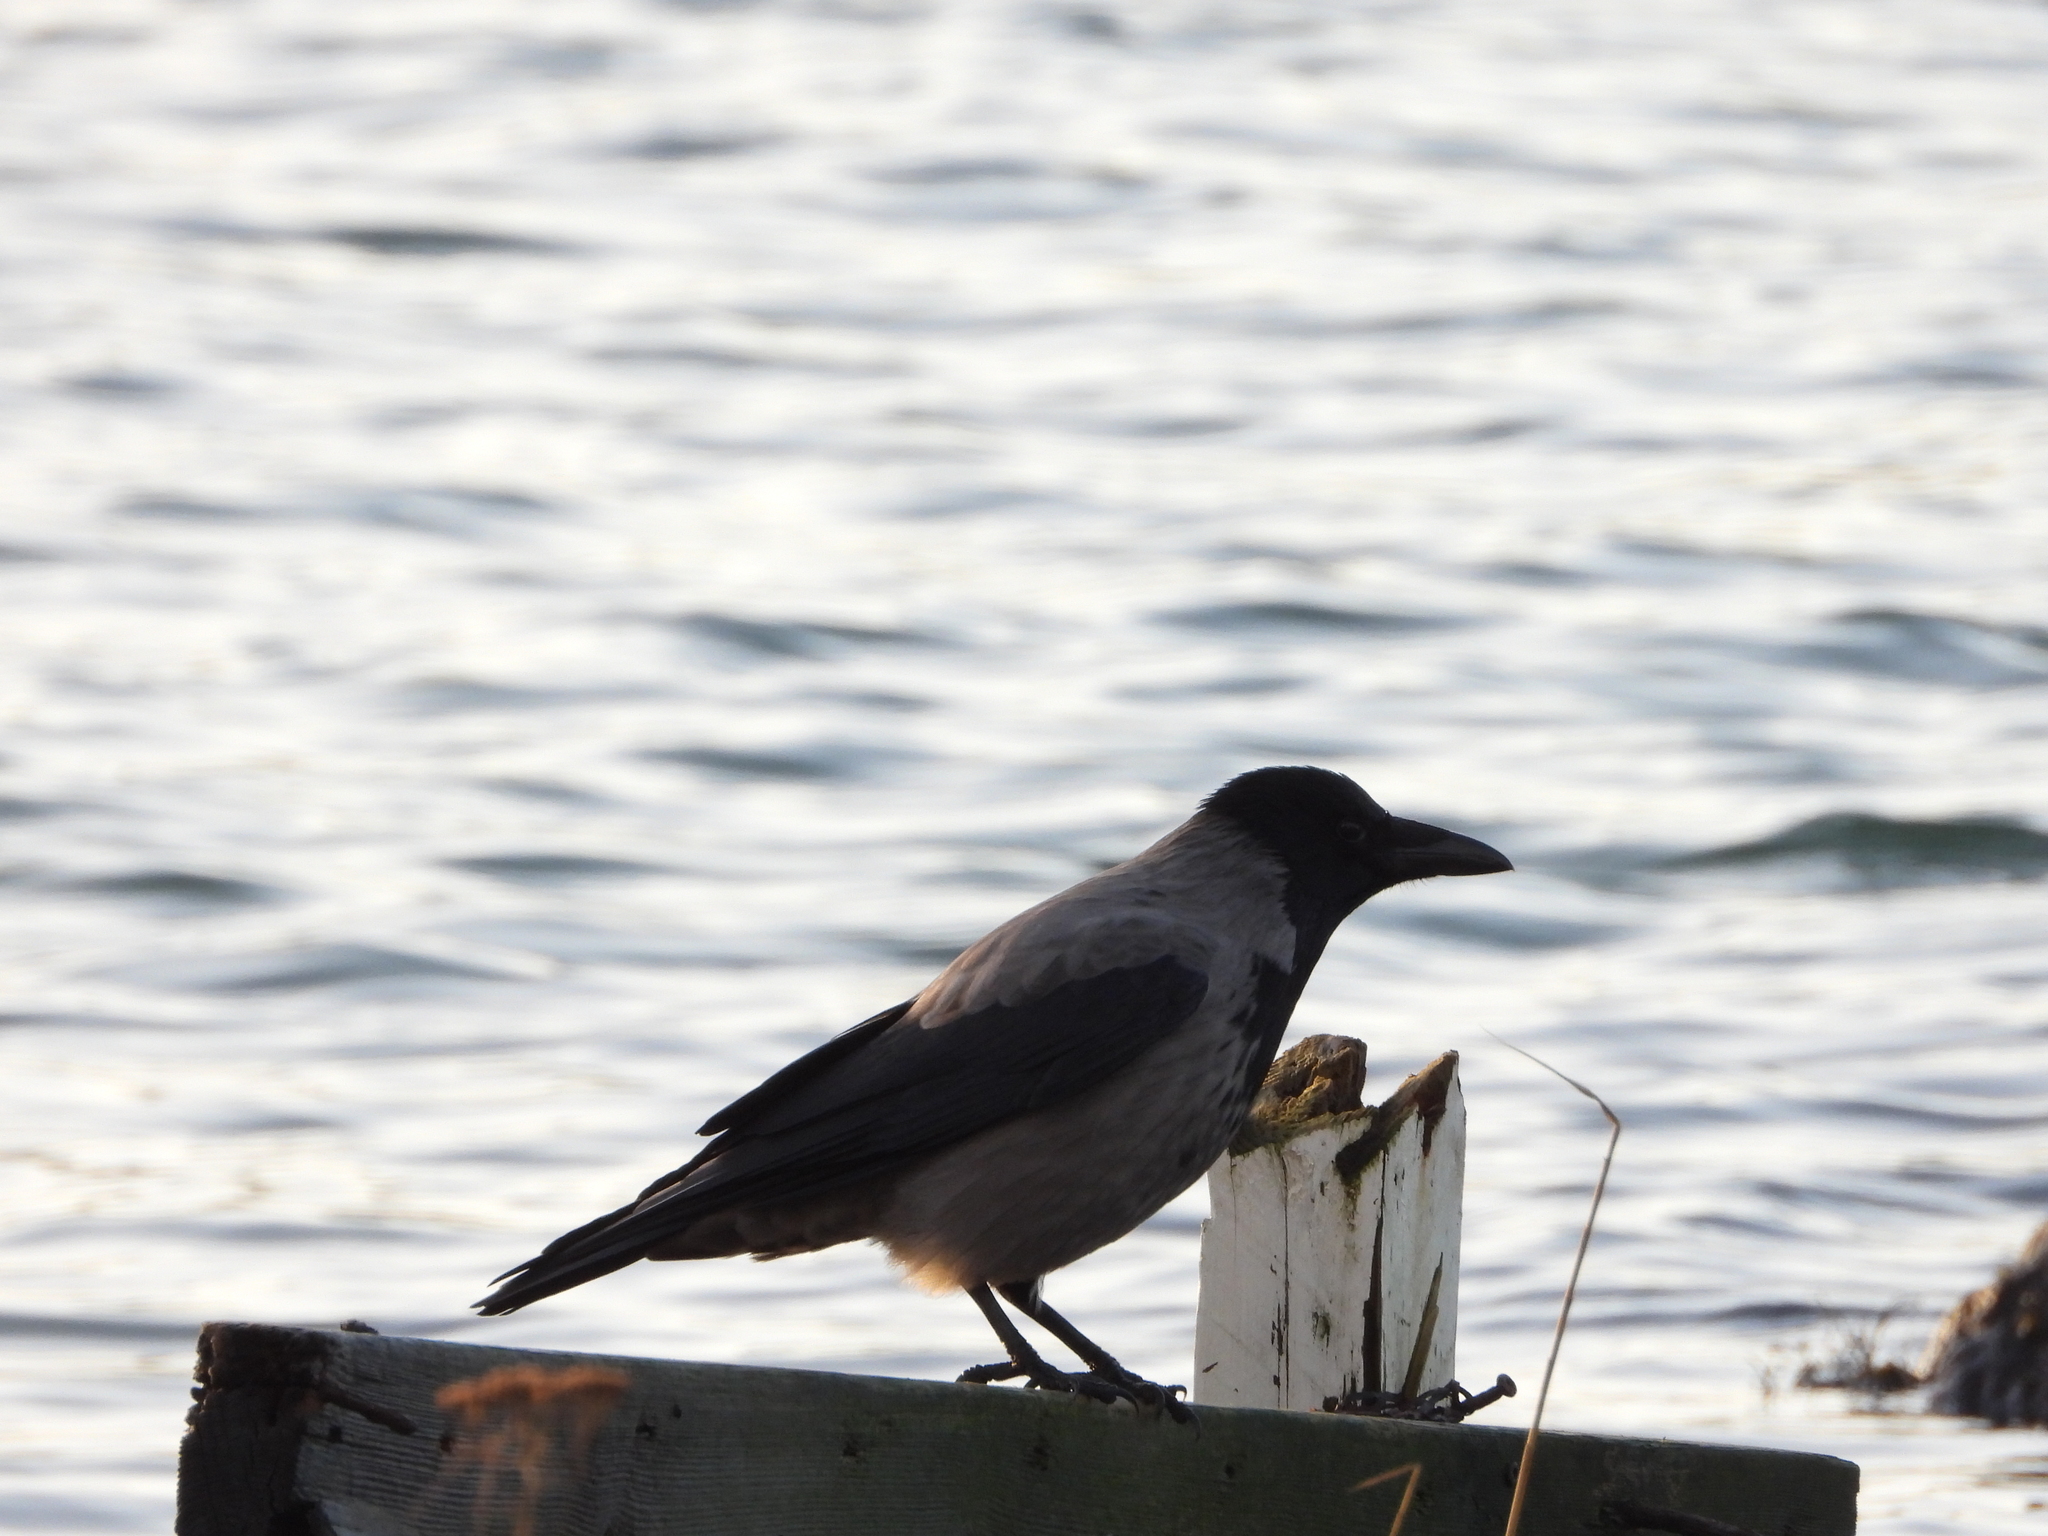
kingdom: Animalia
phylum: Chordata
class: Aves
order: Passeriformes
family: Corvidae
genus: Corvus
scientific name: Corvus cornix
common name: Hooded crow
